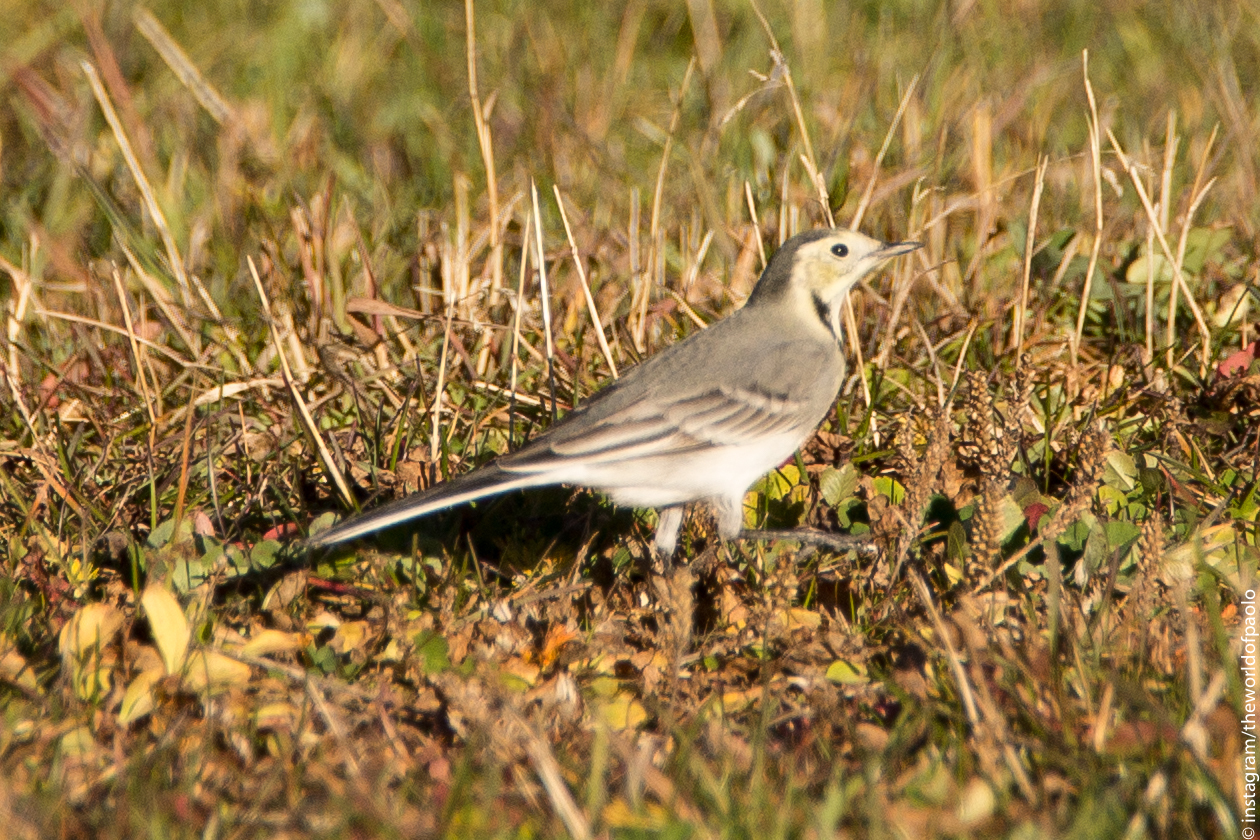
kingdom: Animalia
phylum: Chordata
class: Aves
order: Passeriformes
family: Motacillidae
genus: Motacilla
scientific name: Motacilla alba
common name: White wagtail
